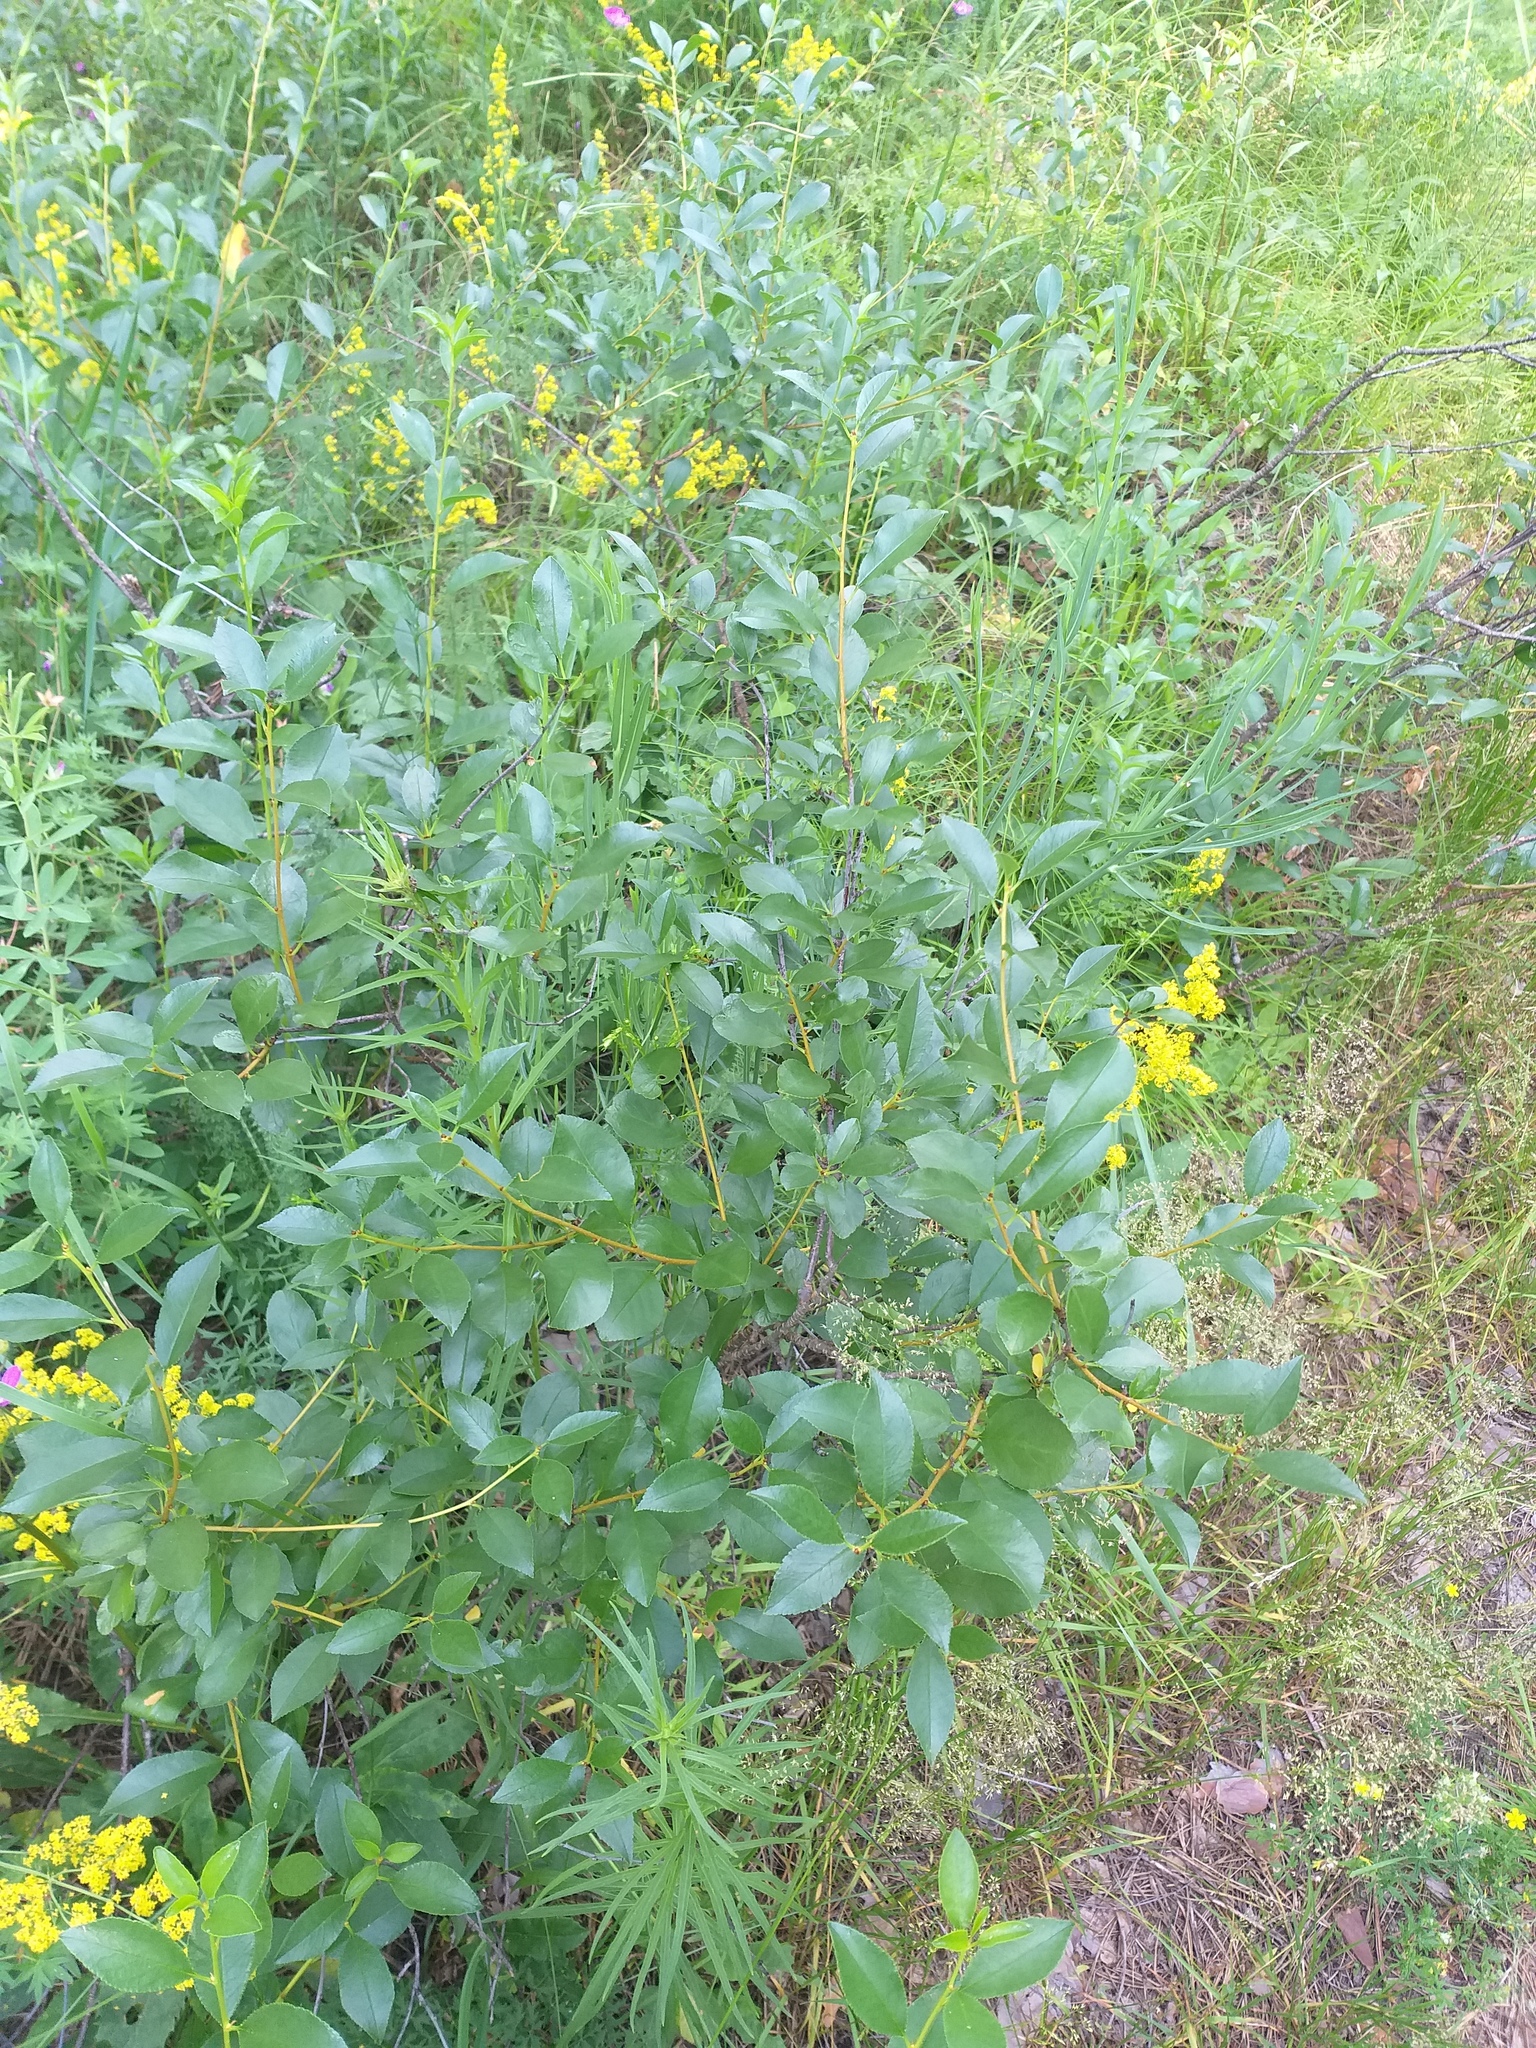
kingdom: Plantae
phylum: Tracheophyta
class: Magnoliopsida
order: Rosales
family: Rosaceae
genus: Prunus
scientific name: Prunus fruticosa
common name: European dwarf cherry
